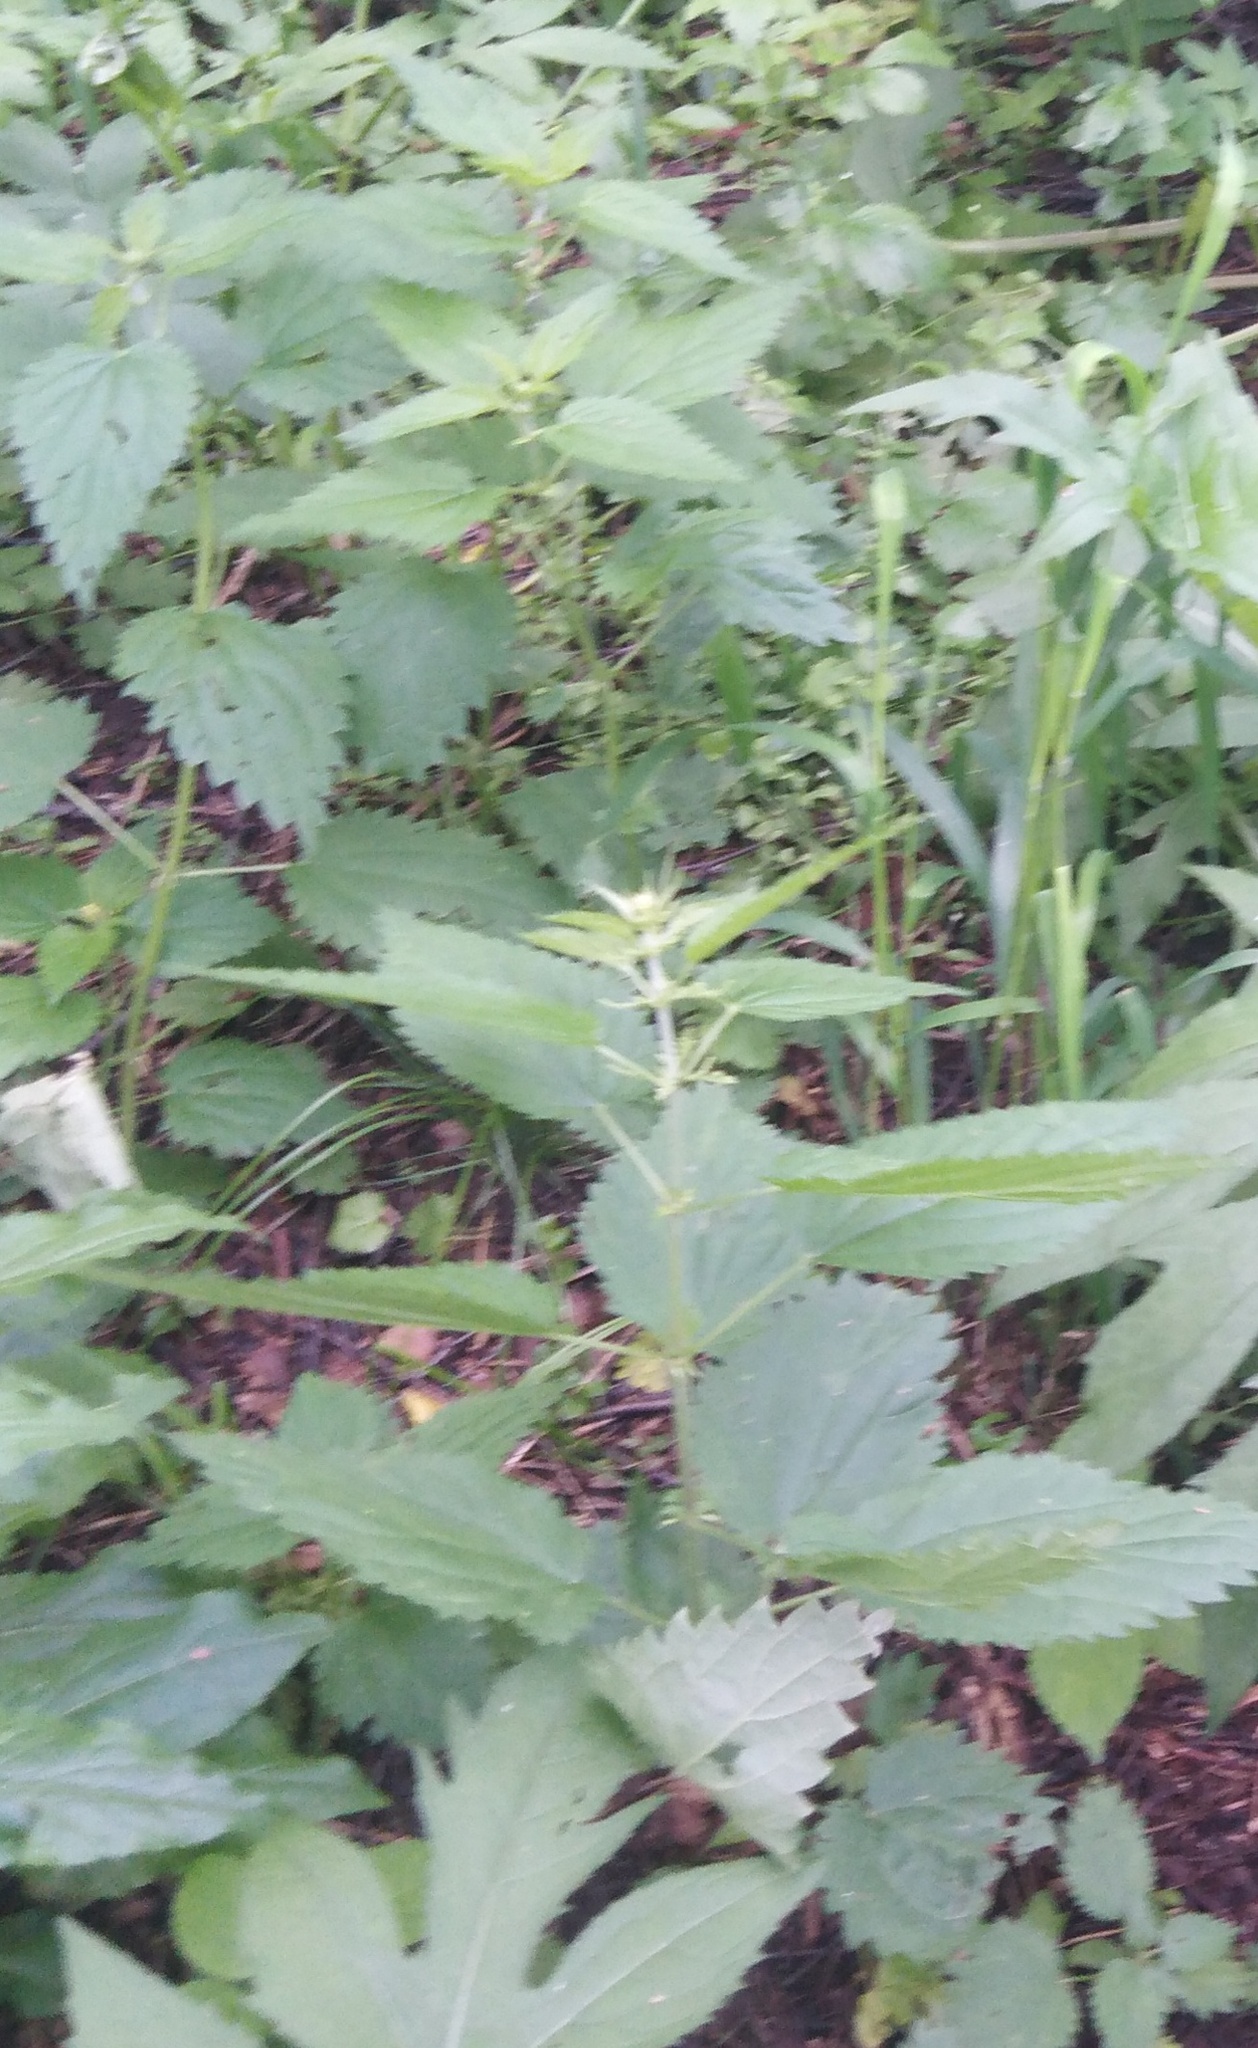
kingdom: Plantae
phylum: Tracheophyta
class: Magnoliopsida
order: Rosales
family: Urticaceae
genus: Urtica
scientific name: Urtica dioica
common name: Common nettle
